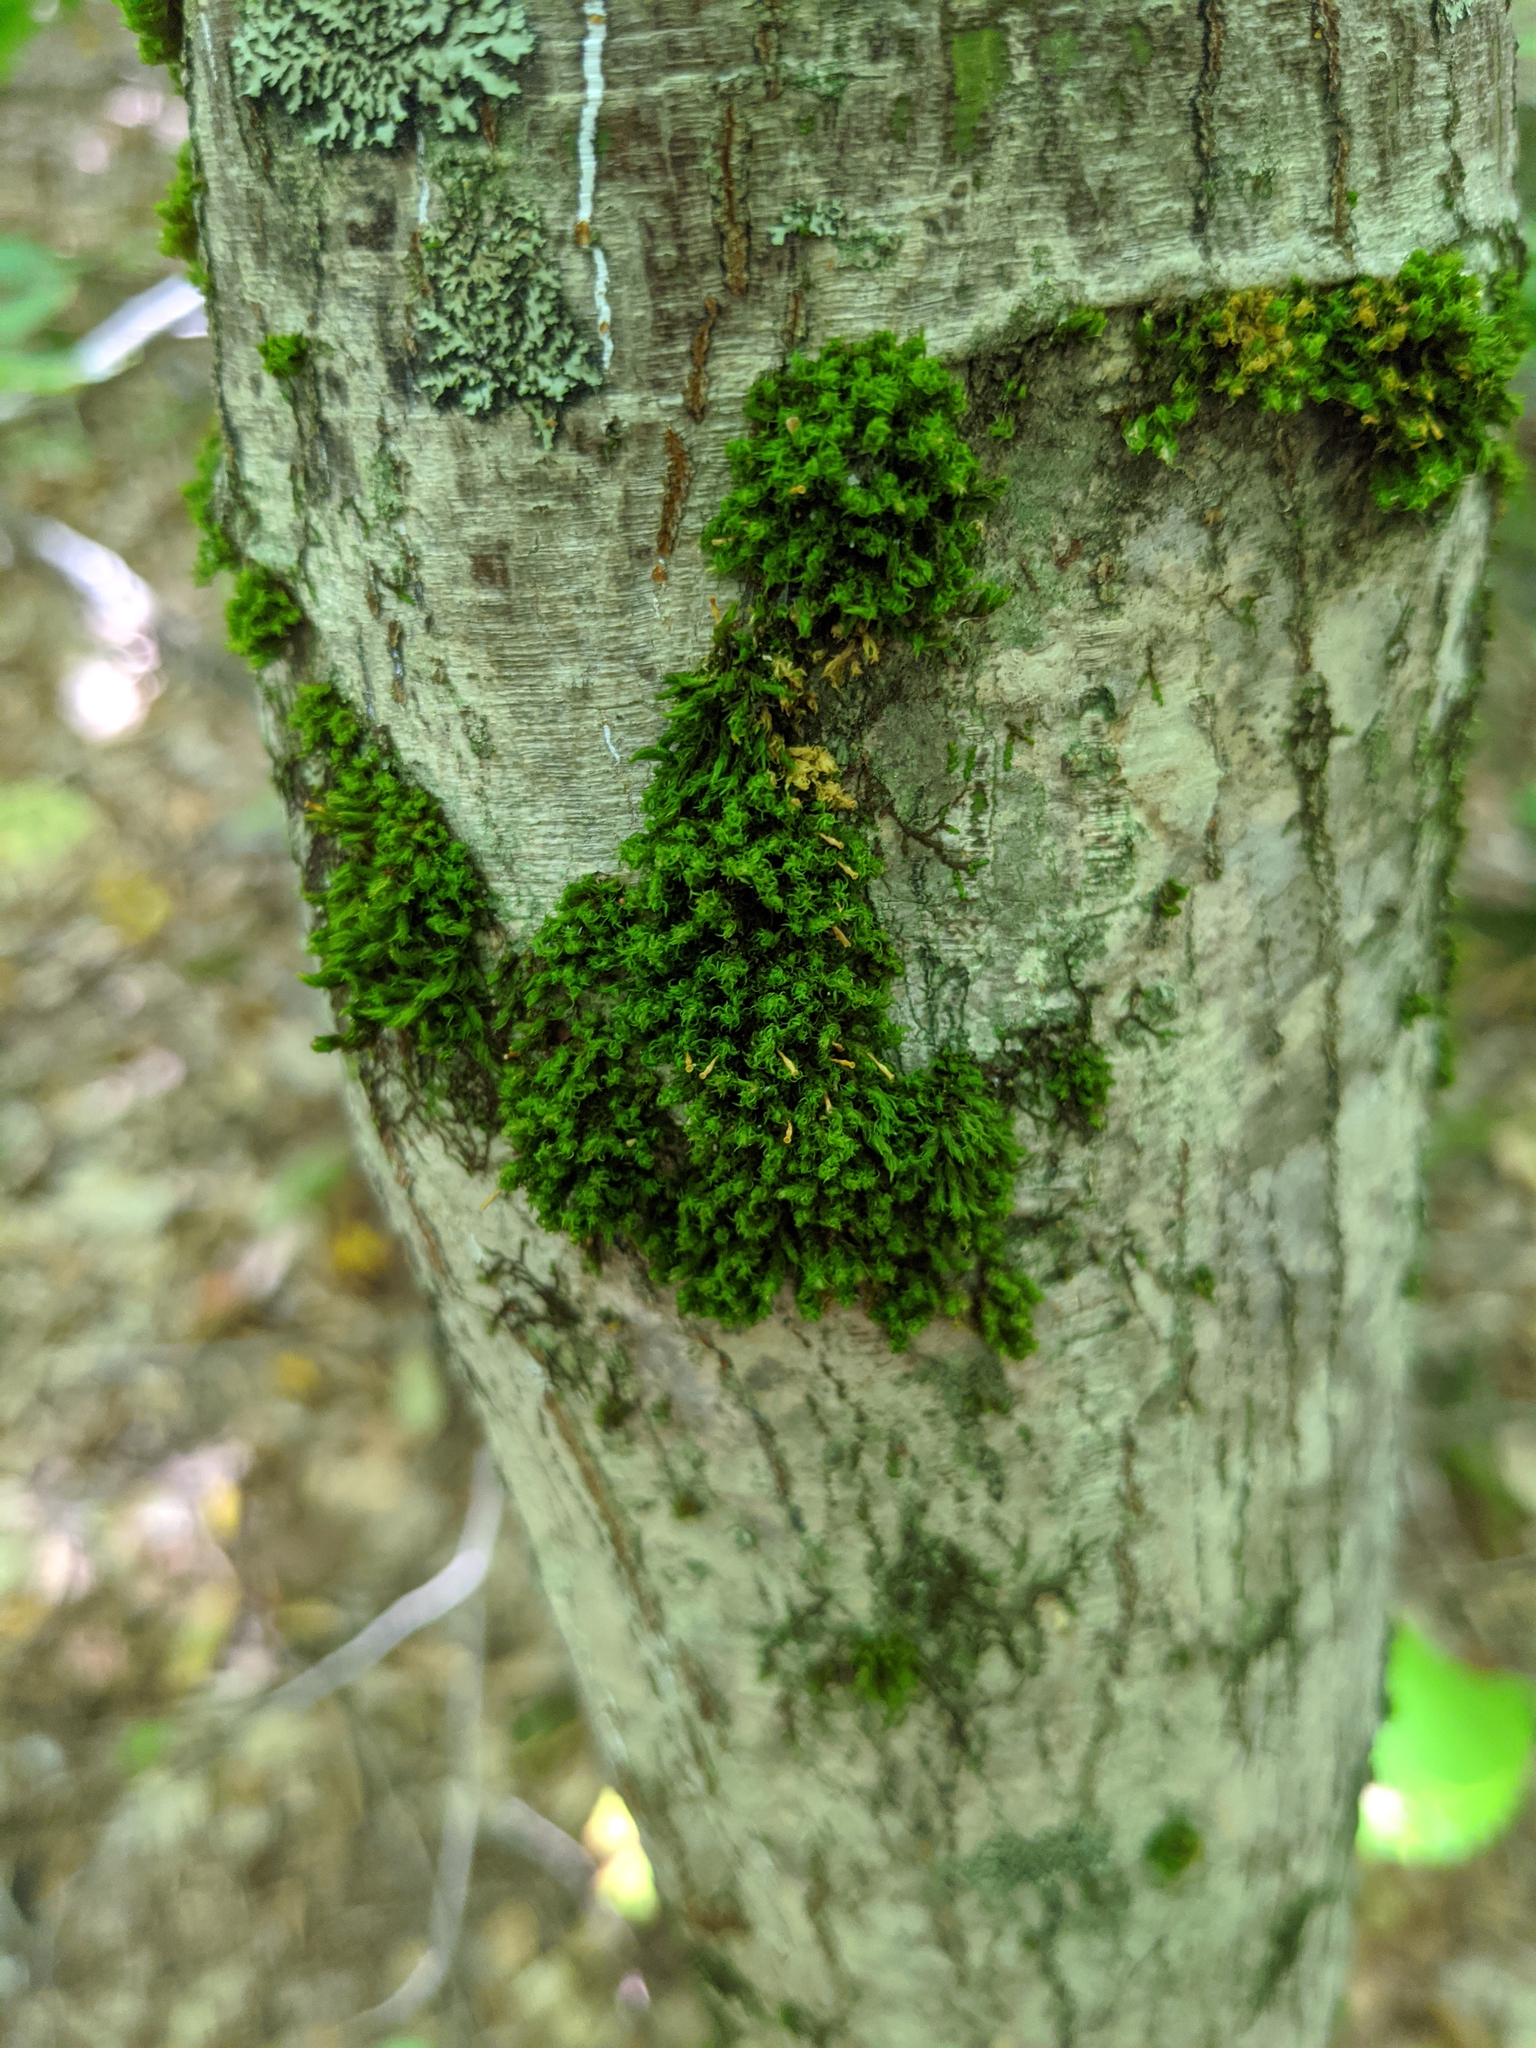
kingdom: Plantae
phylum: Bryophyta
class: Bryopsida
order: Orthotrichales
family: Orthotrichaceae
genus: Ulota
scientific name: Ulota crispa
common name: Crisped pincushion moss
